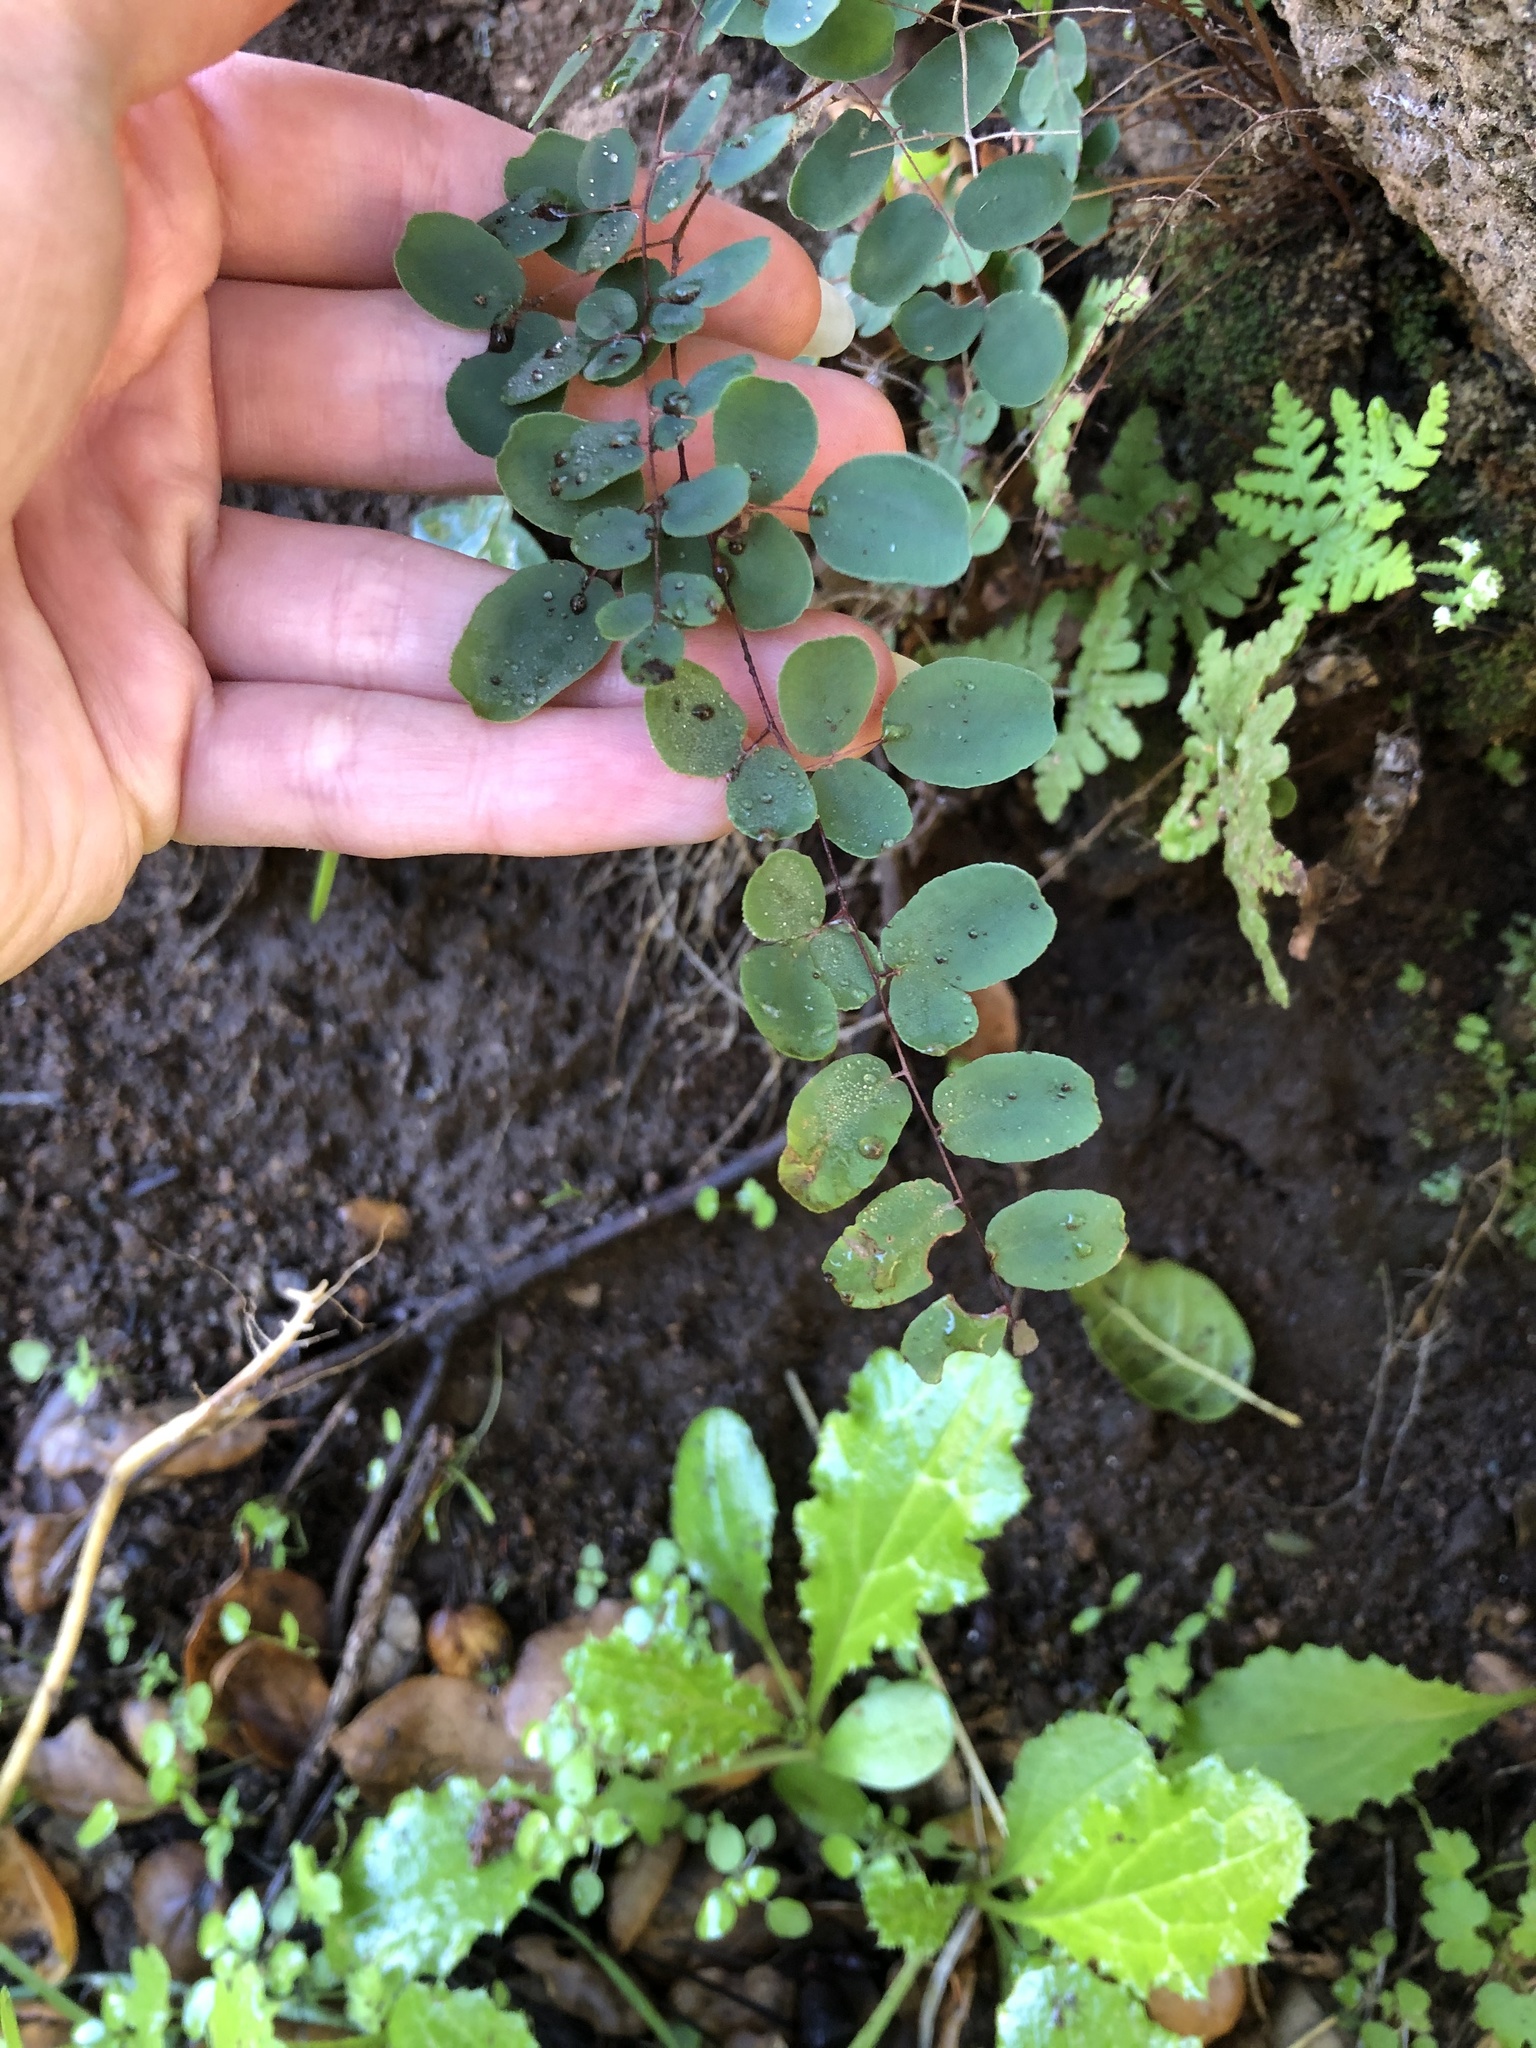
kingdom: Plantae
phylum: Tracheophyta
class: Polypodiopsida
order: Polypodiales
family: Pteridaceae
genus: Pellaea
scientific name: Pellaea andromedifolia
